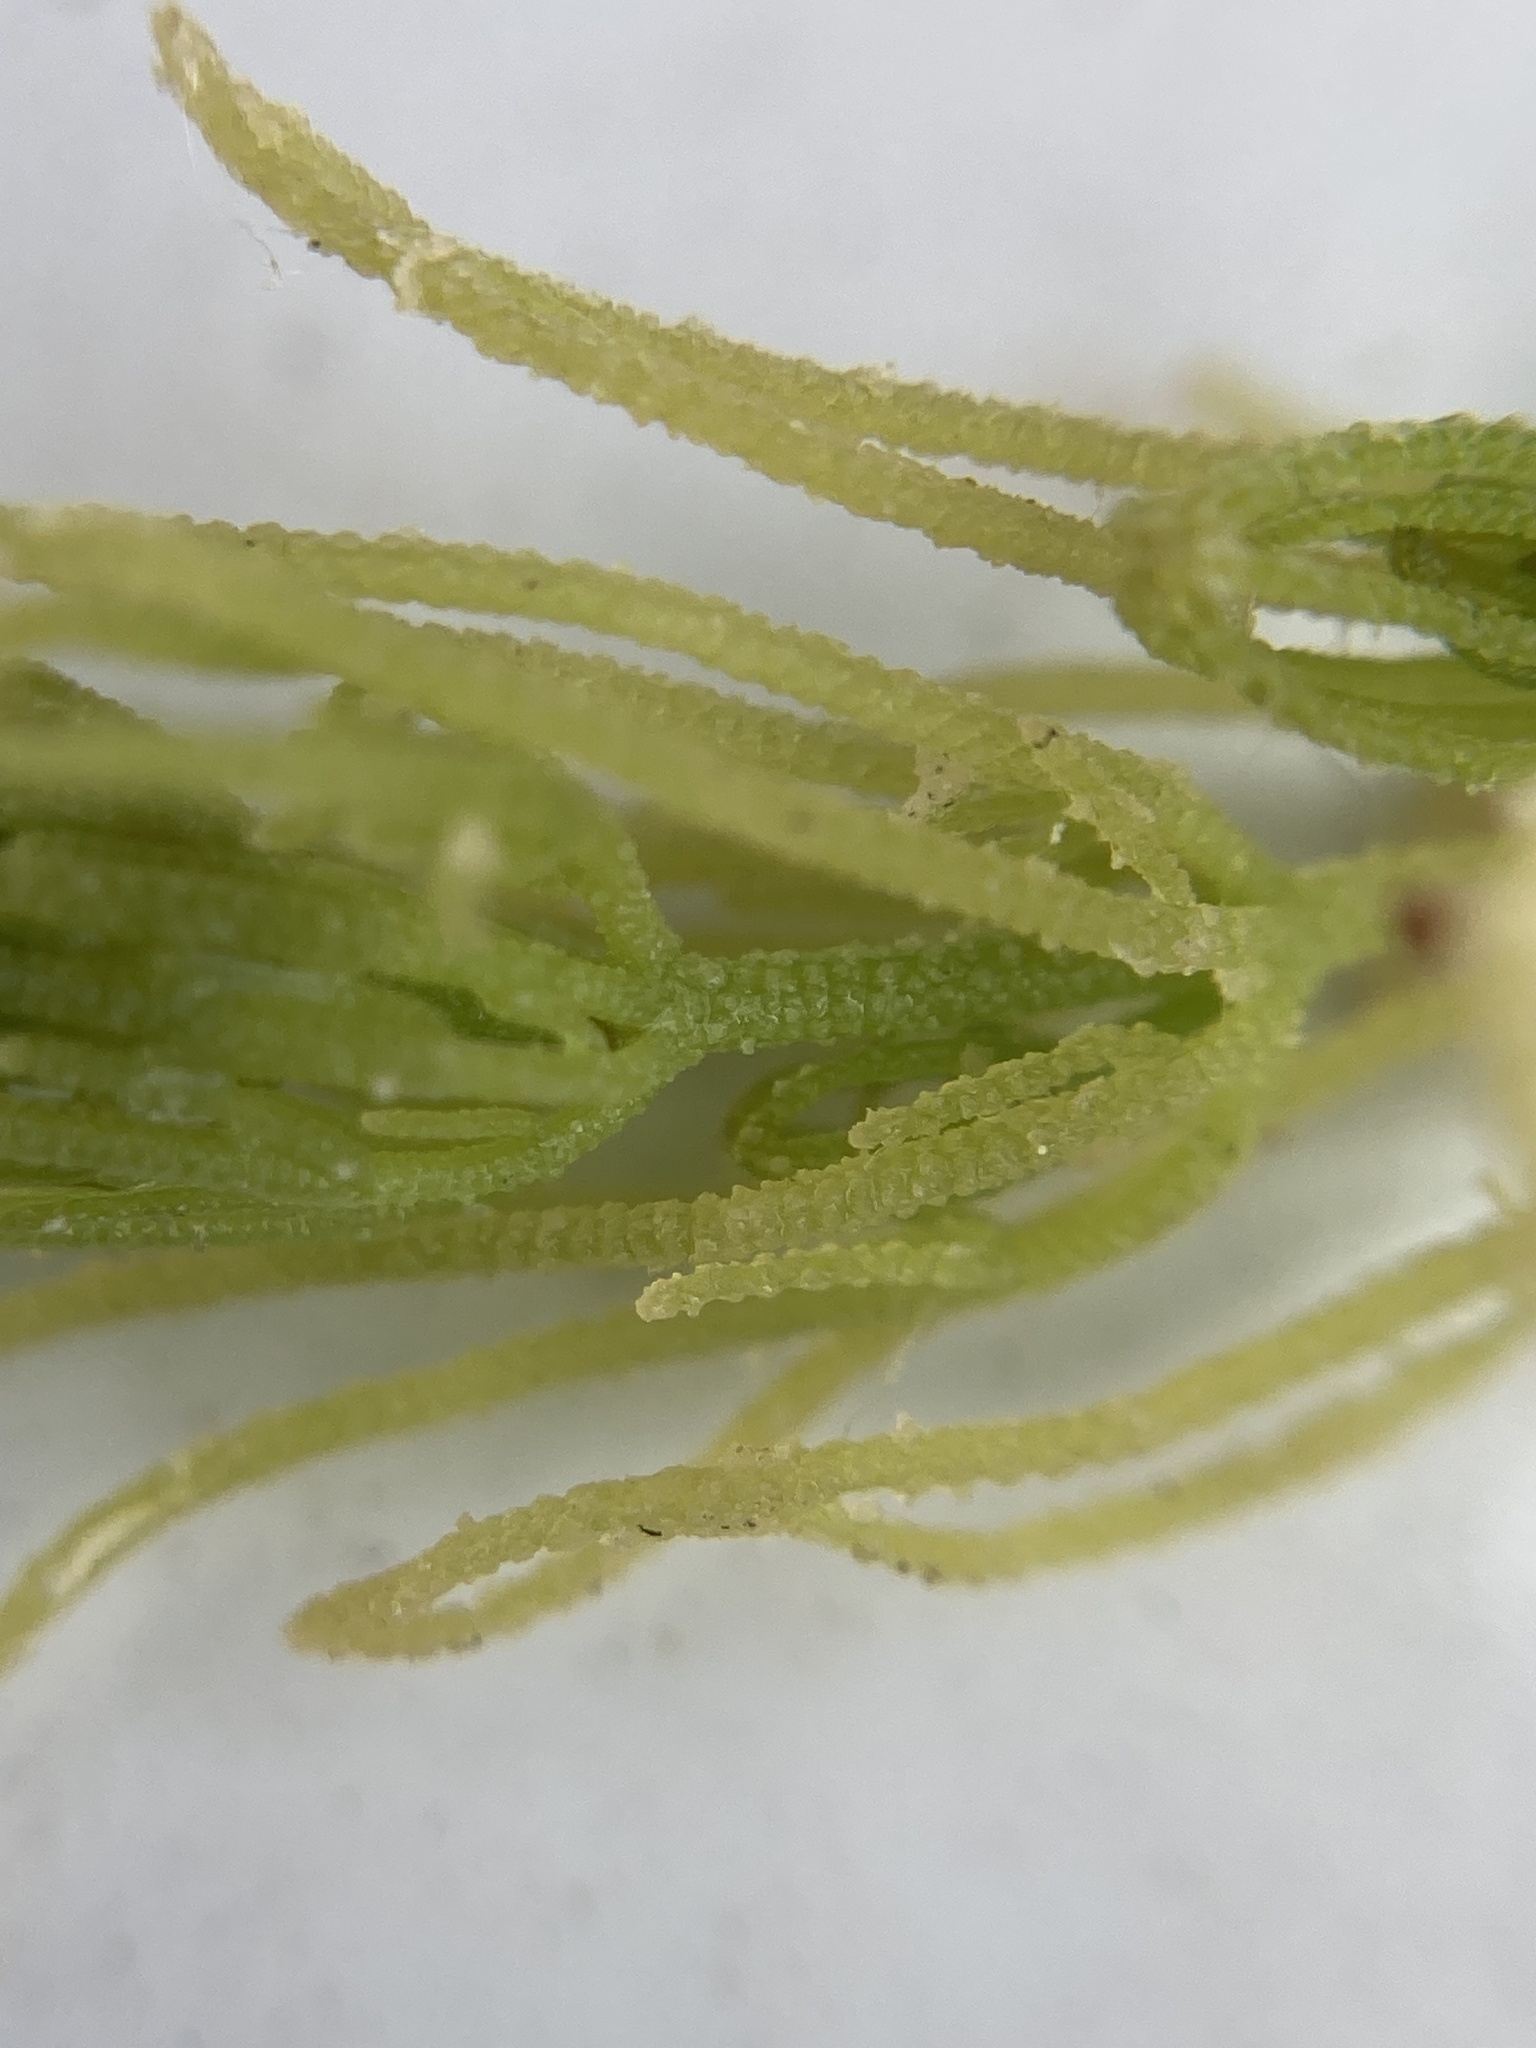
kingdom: Plantae
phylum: Charophyta
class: Charophyceae
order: Charales
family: Characeae
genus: Chara
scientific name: Chara vulgaris
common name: Common stonewort
